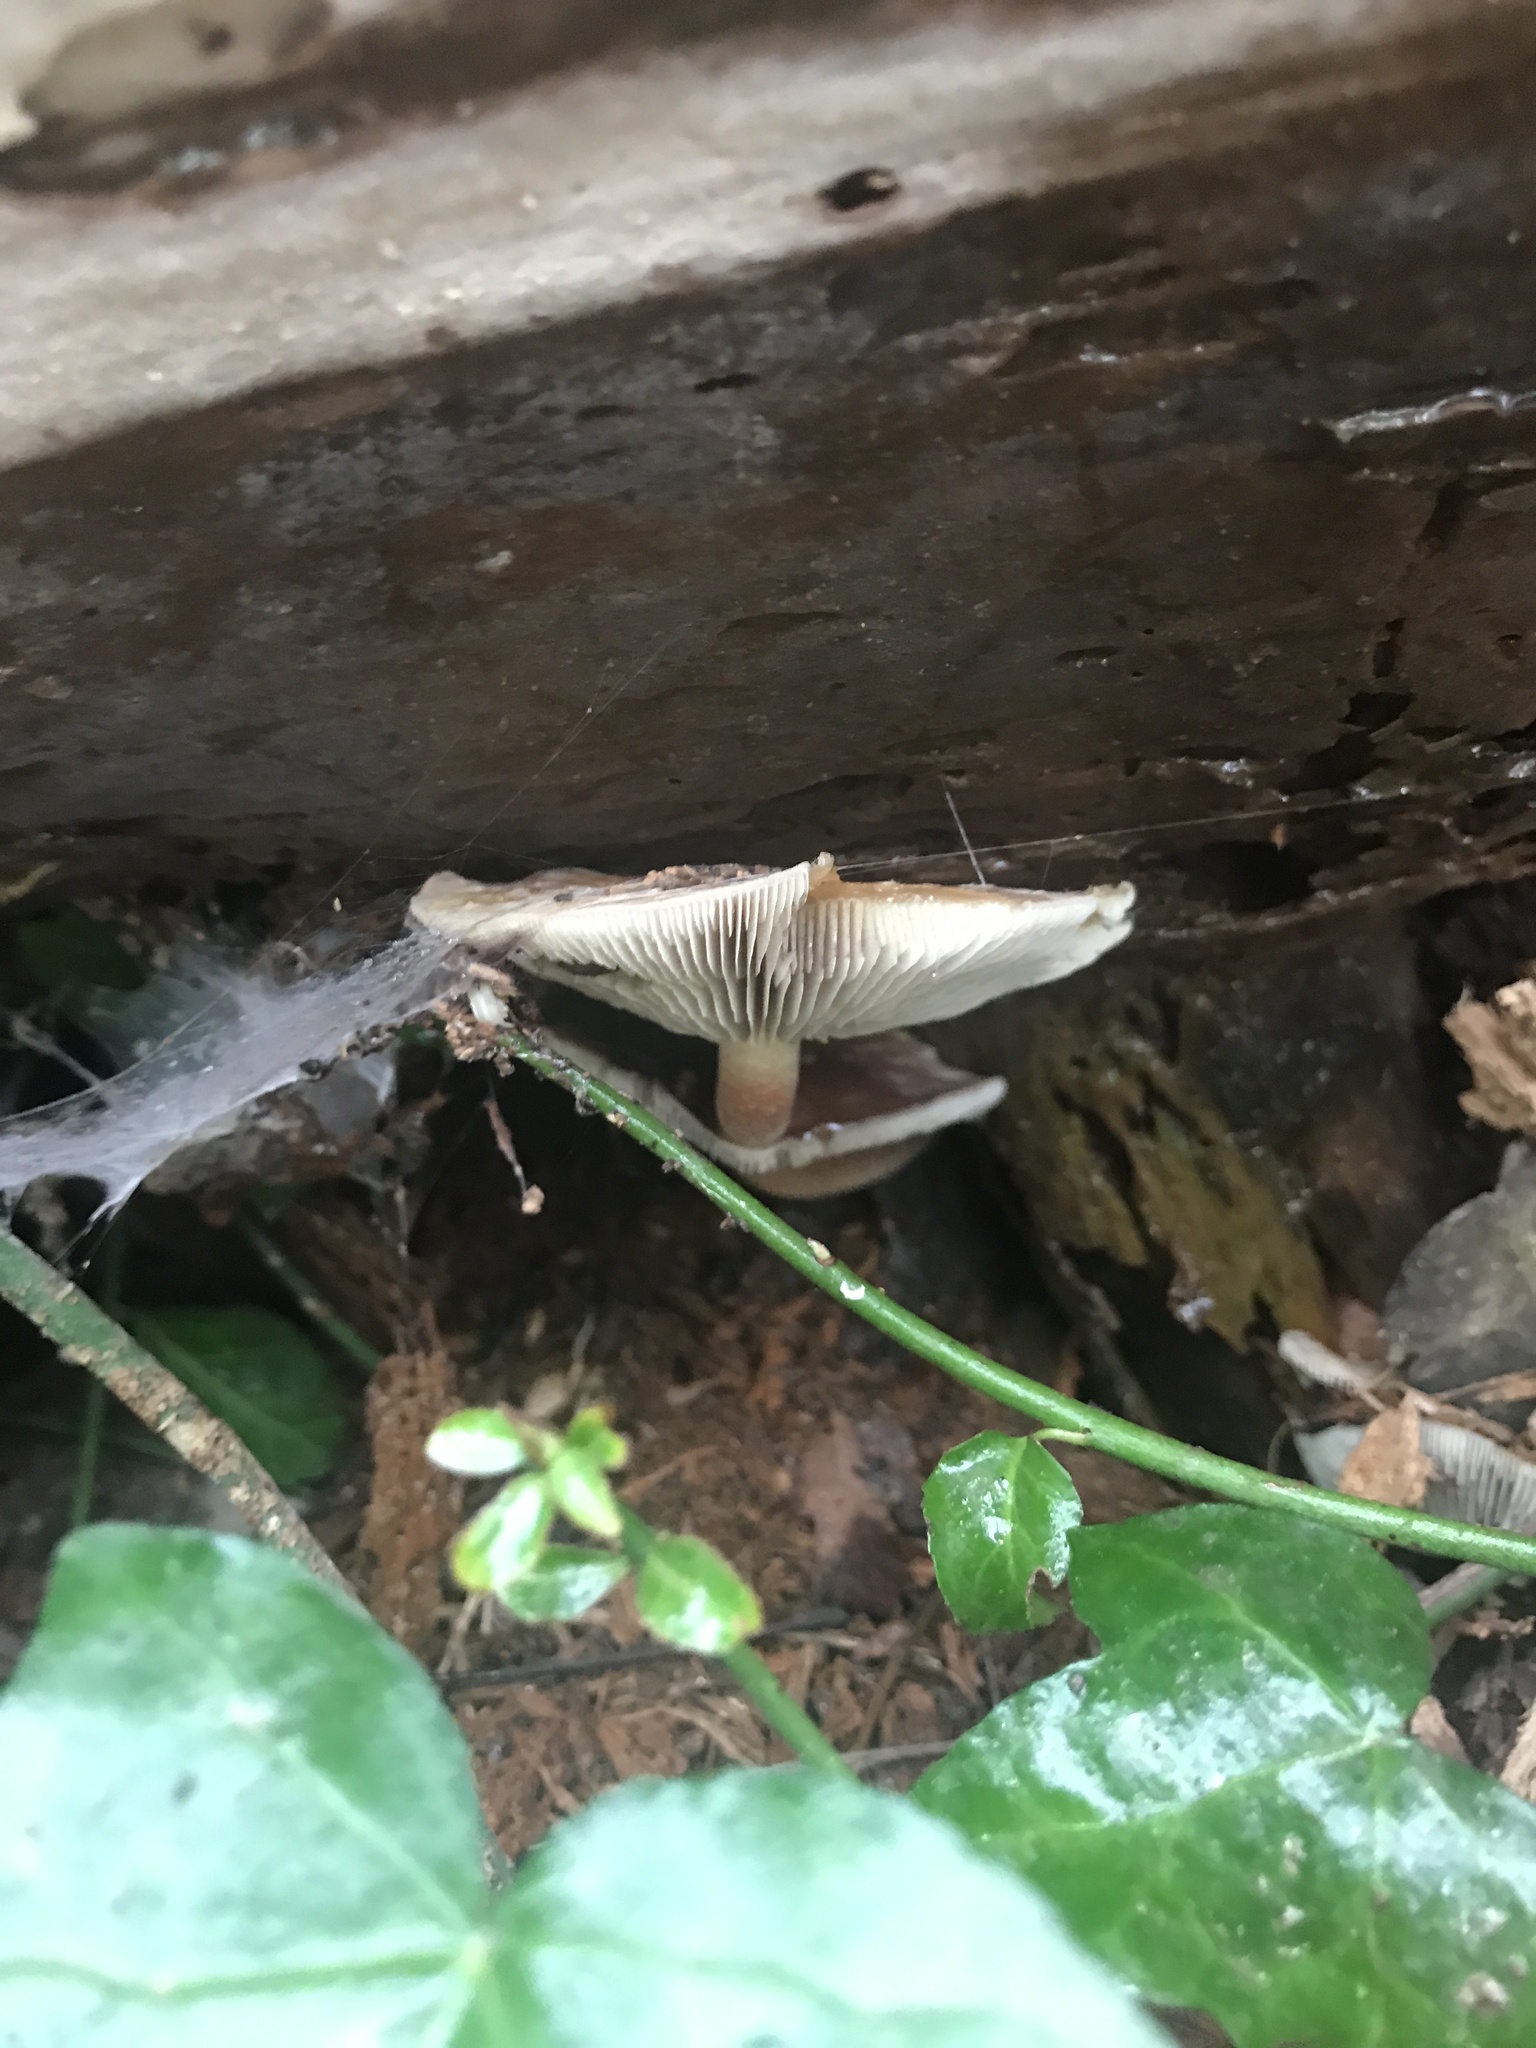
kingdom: Fungi
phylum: Basidiomycota
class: Agaricomycetes
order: Agaricales
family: Strophariaceae
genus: Hypholoma
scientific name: Hypholoma lateritium
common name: Brick caps
